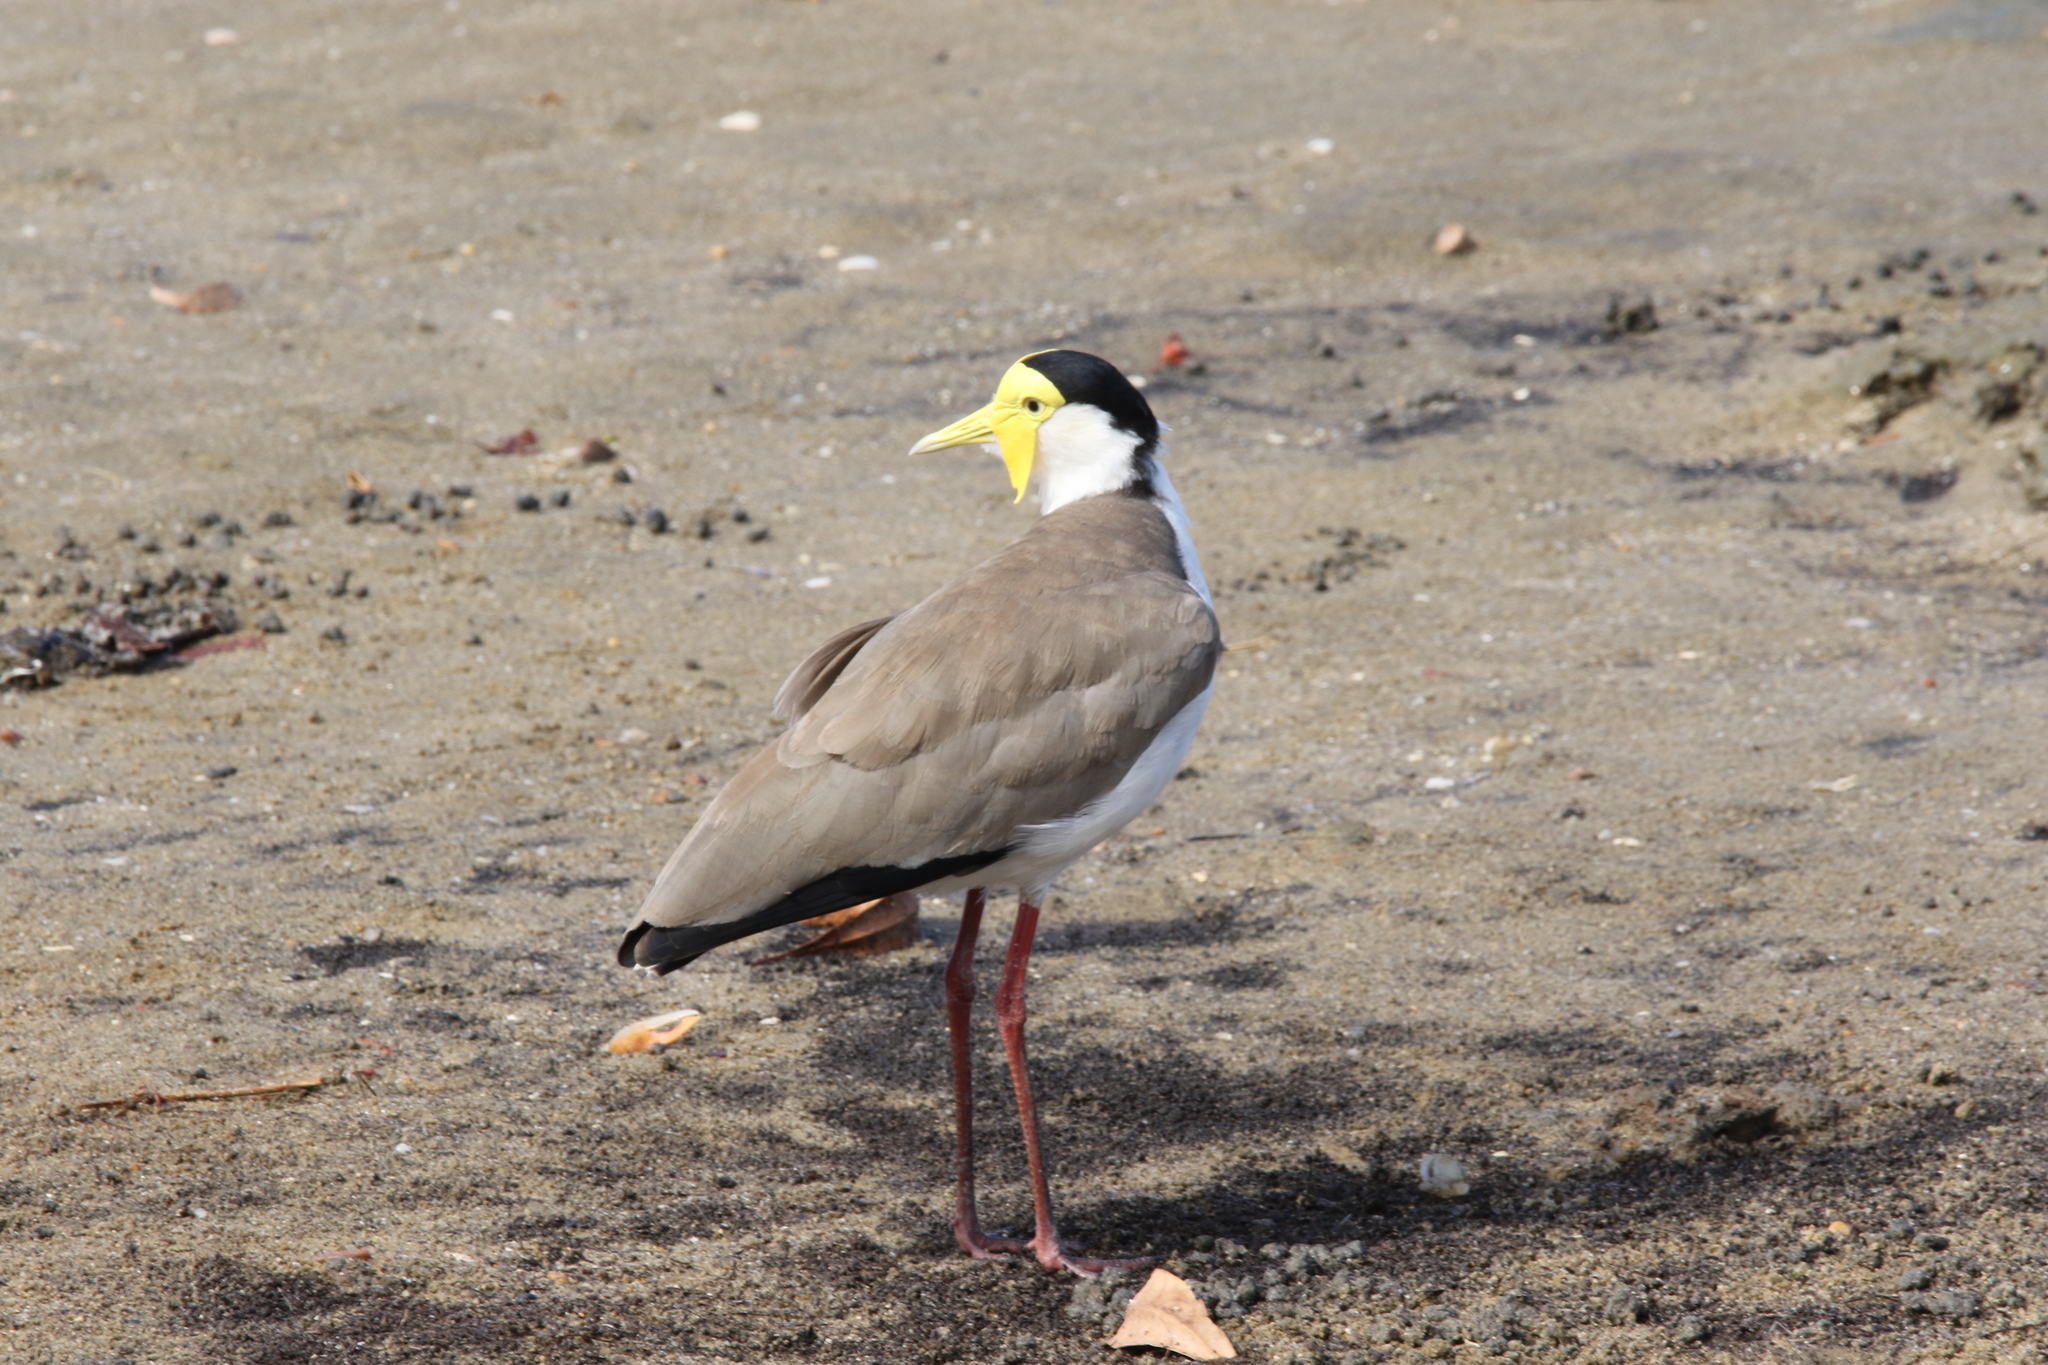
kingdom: Animalia
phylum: Chordata
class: Aves
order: Charadriiformes
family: Charadriidae
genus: Vanellus
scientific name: Vanellus miles
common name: Masked lapwing
